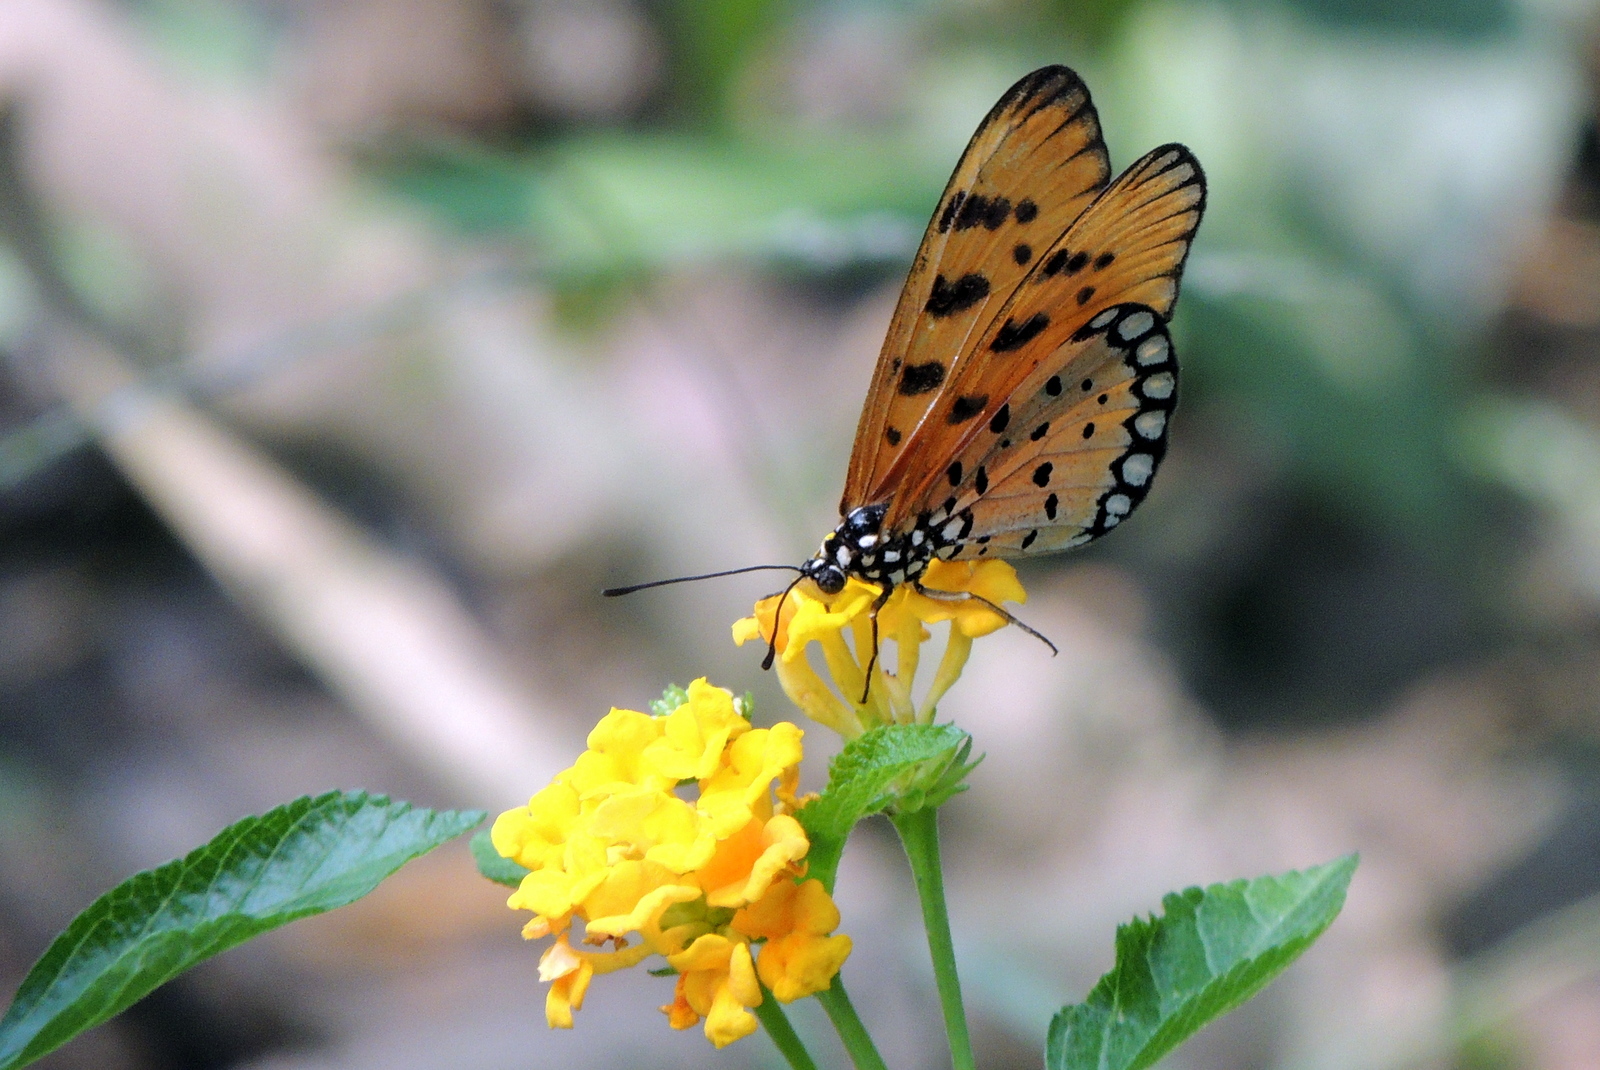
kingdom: Animalia
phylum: Arthropoda
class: Insecta
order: Lepidoptera
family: Nymphalidae
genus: Acraea
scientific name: Acraea terpsicore
